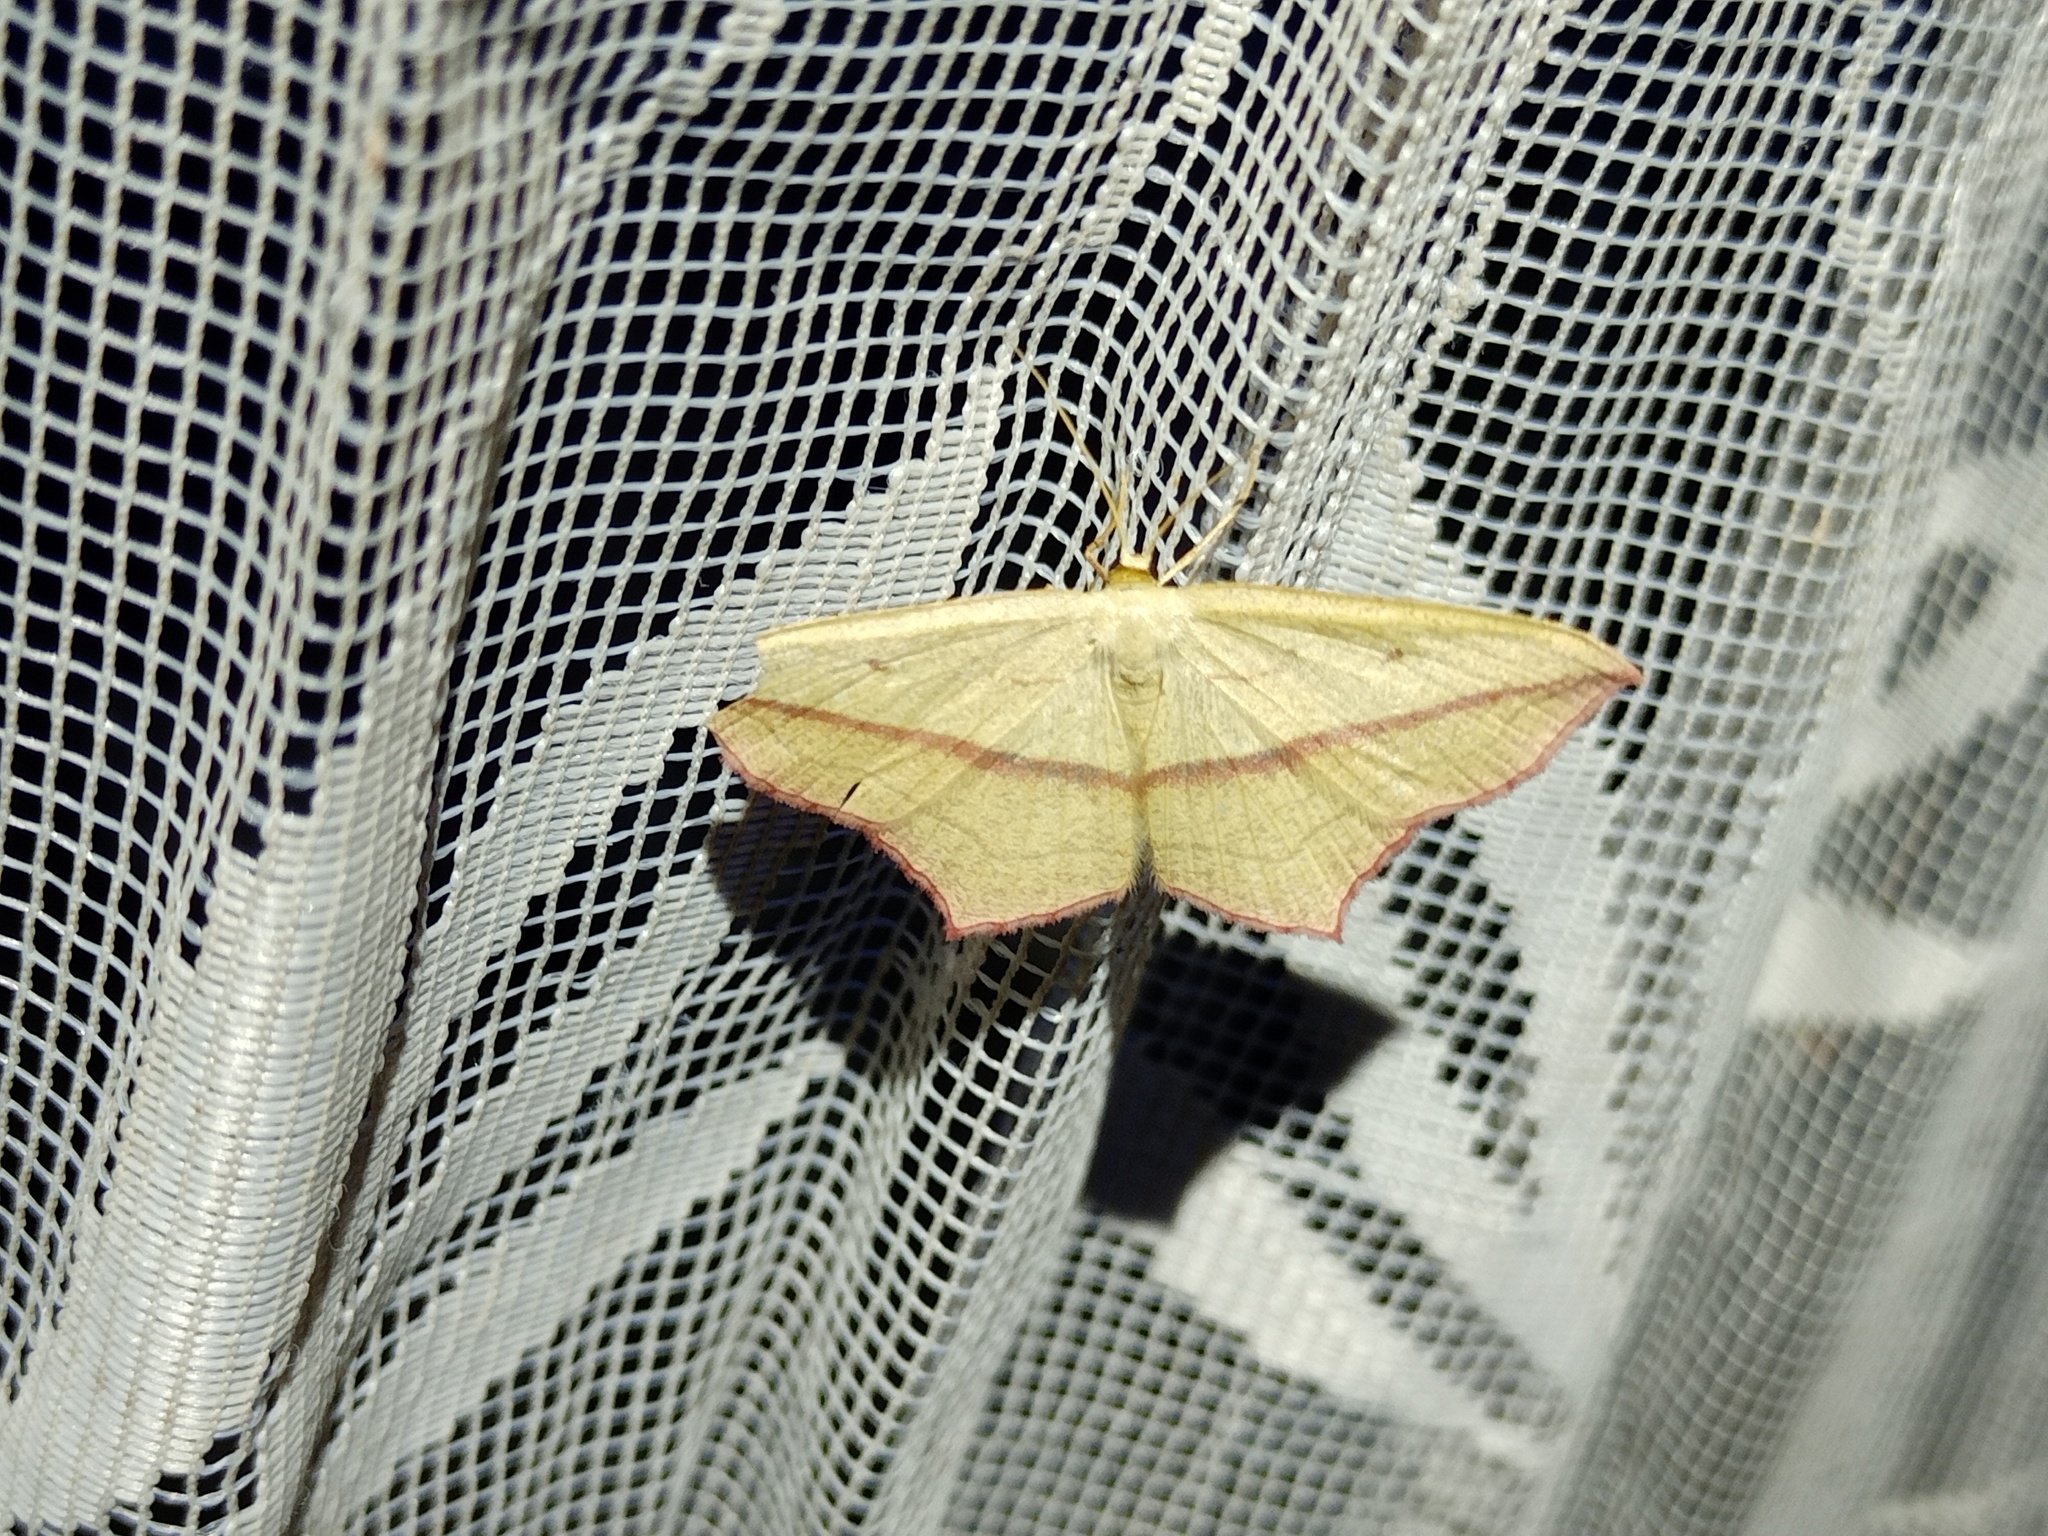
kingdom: Animalia
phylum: Arthropoda
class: Insecta
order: Lepidoptera
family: Geometridae
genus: Timandra
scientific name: Timandra comae
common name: Blood-vein
